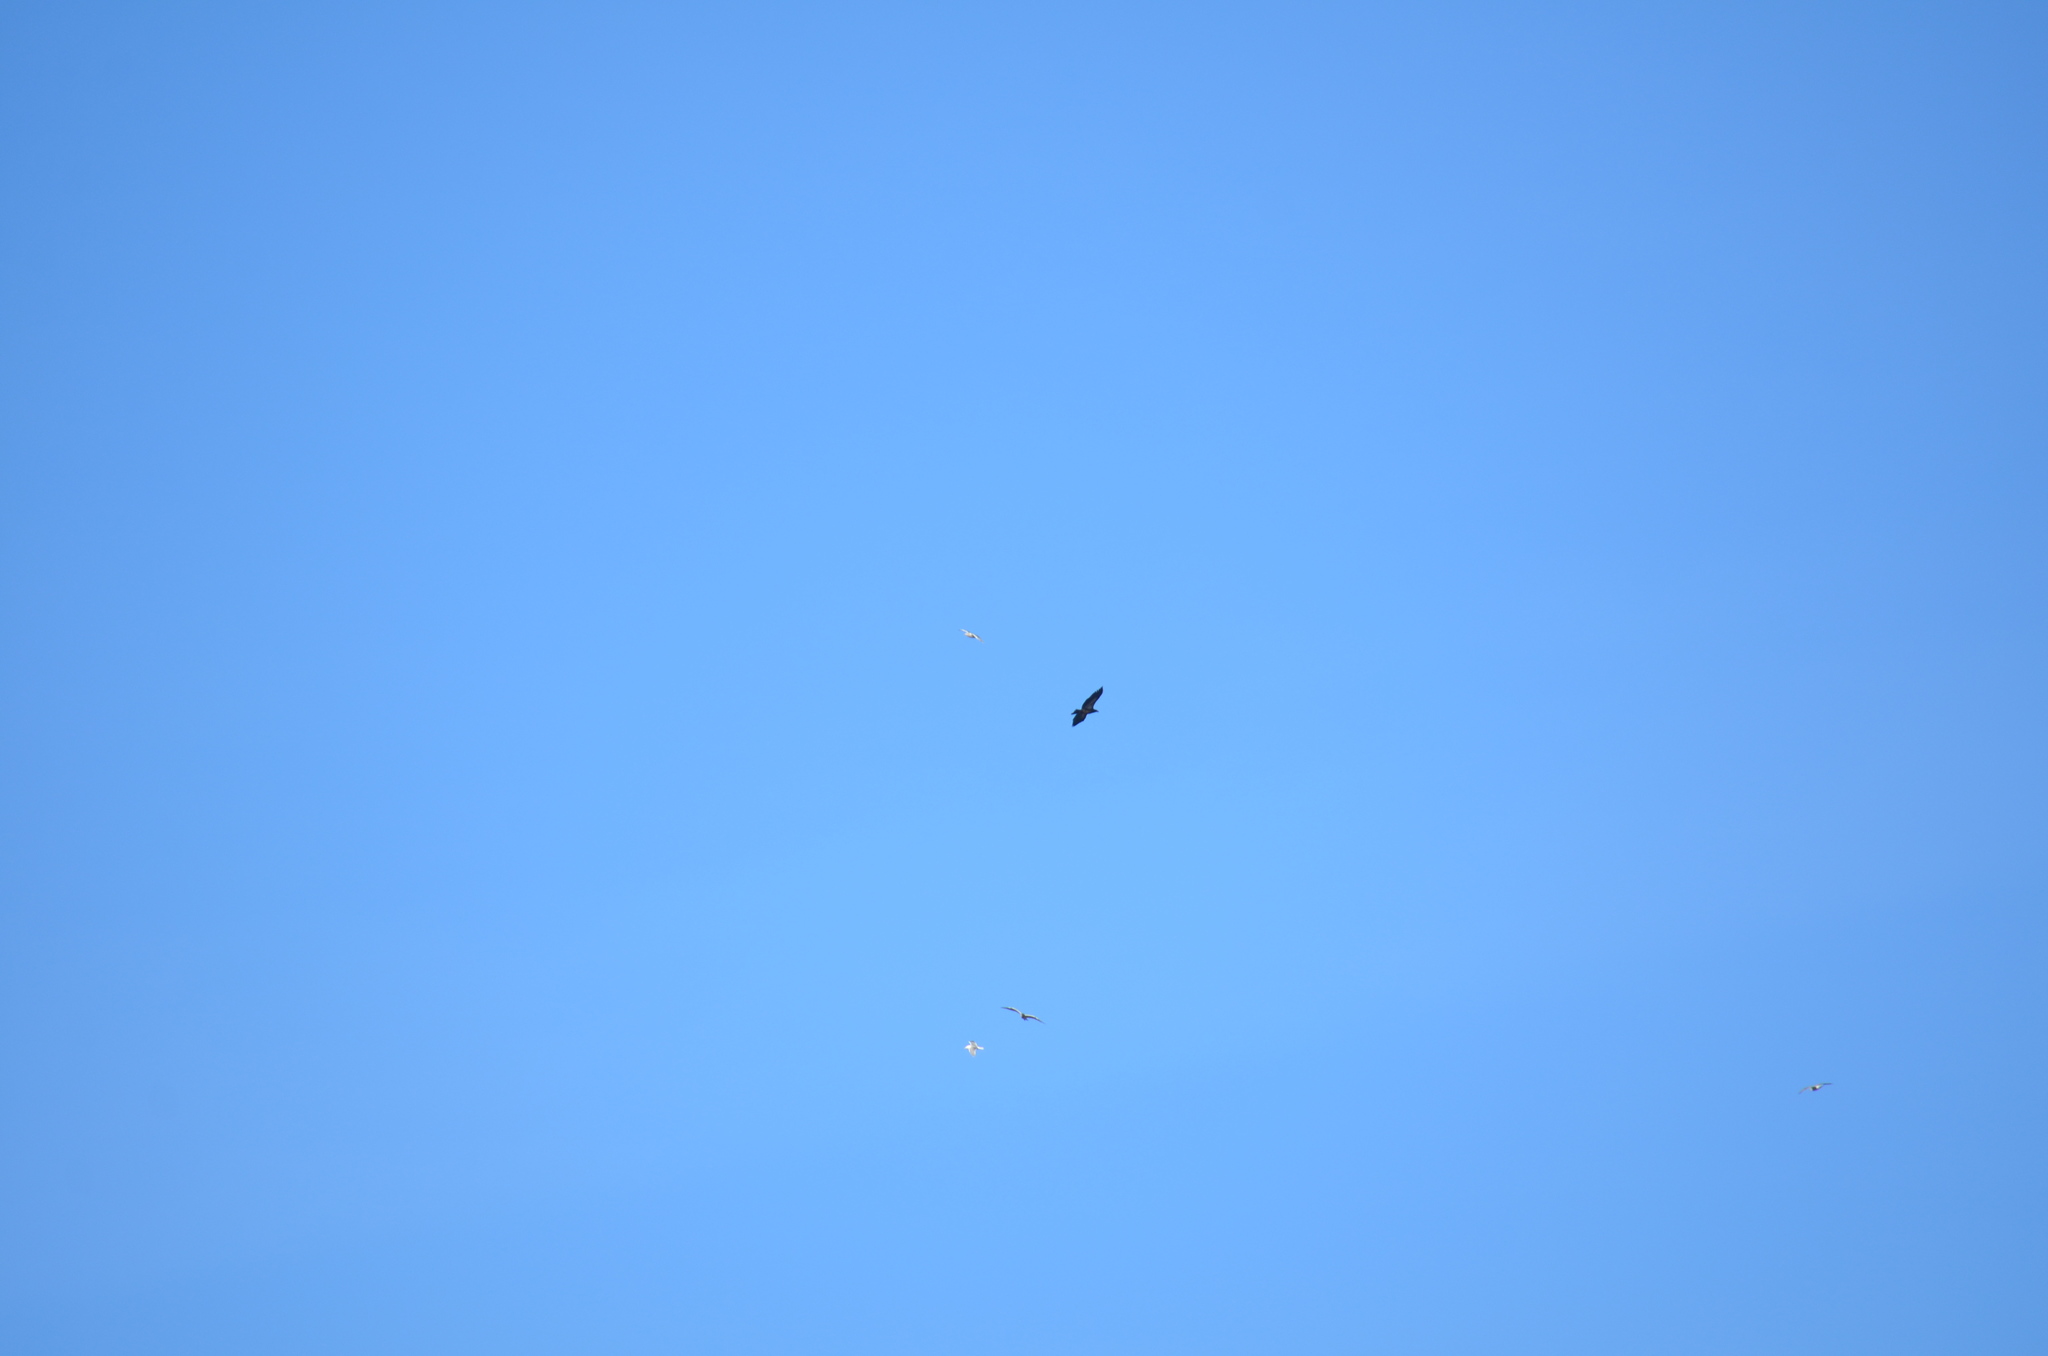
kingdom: Animalia
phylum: Chordata
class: Aves
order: Accipitriformes
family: Accipitridae
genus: Haliaeetus
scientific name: Haliaeetus leucocephalus
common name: Bald eagle
